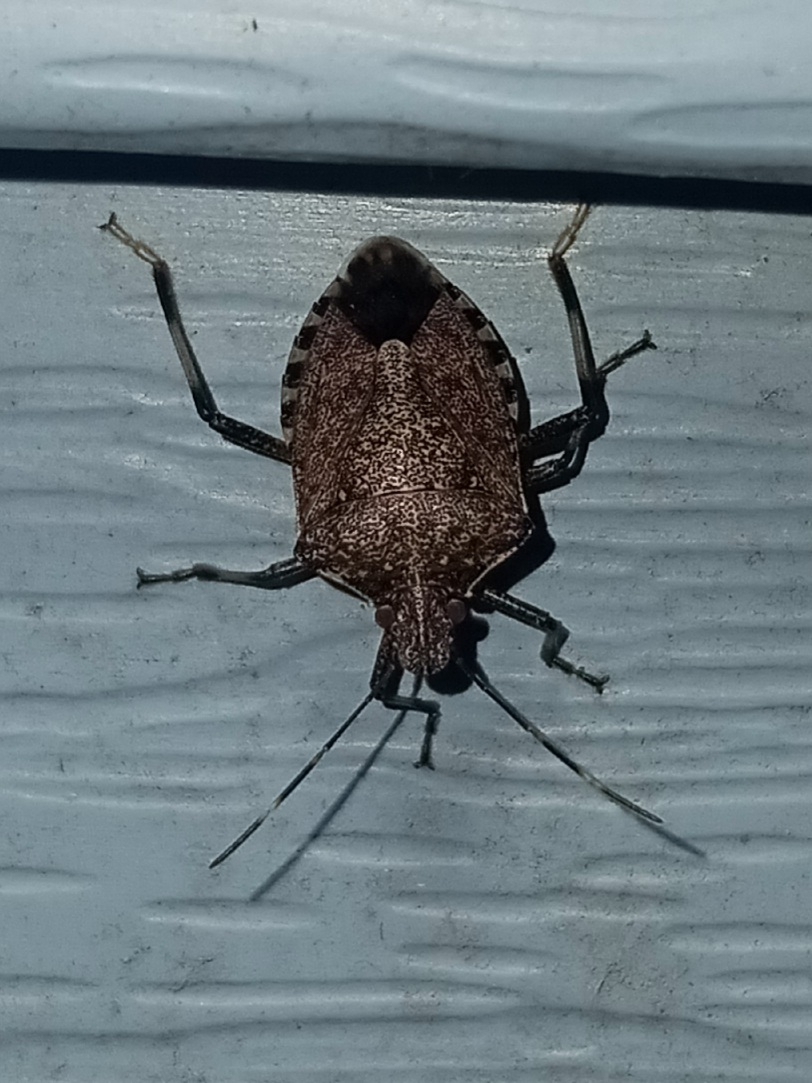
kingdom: Animalia
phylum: Arthropoda
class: Insecta
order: Hemiptera
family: Pentatomidae
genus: Halyomorpha
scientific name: Halyomorpha halys
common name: Brown marmorated stink bug
